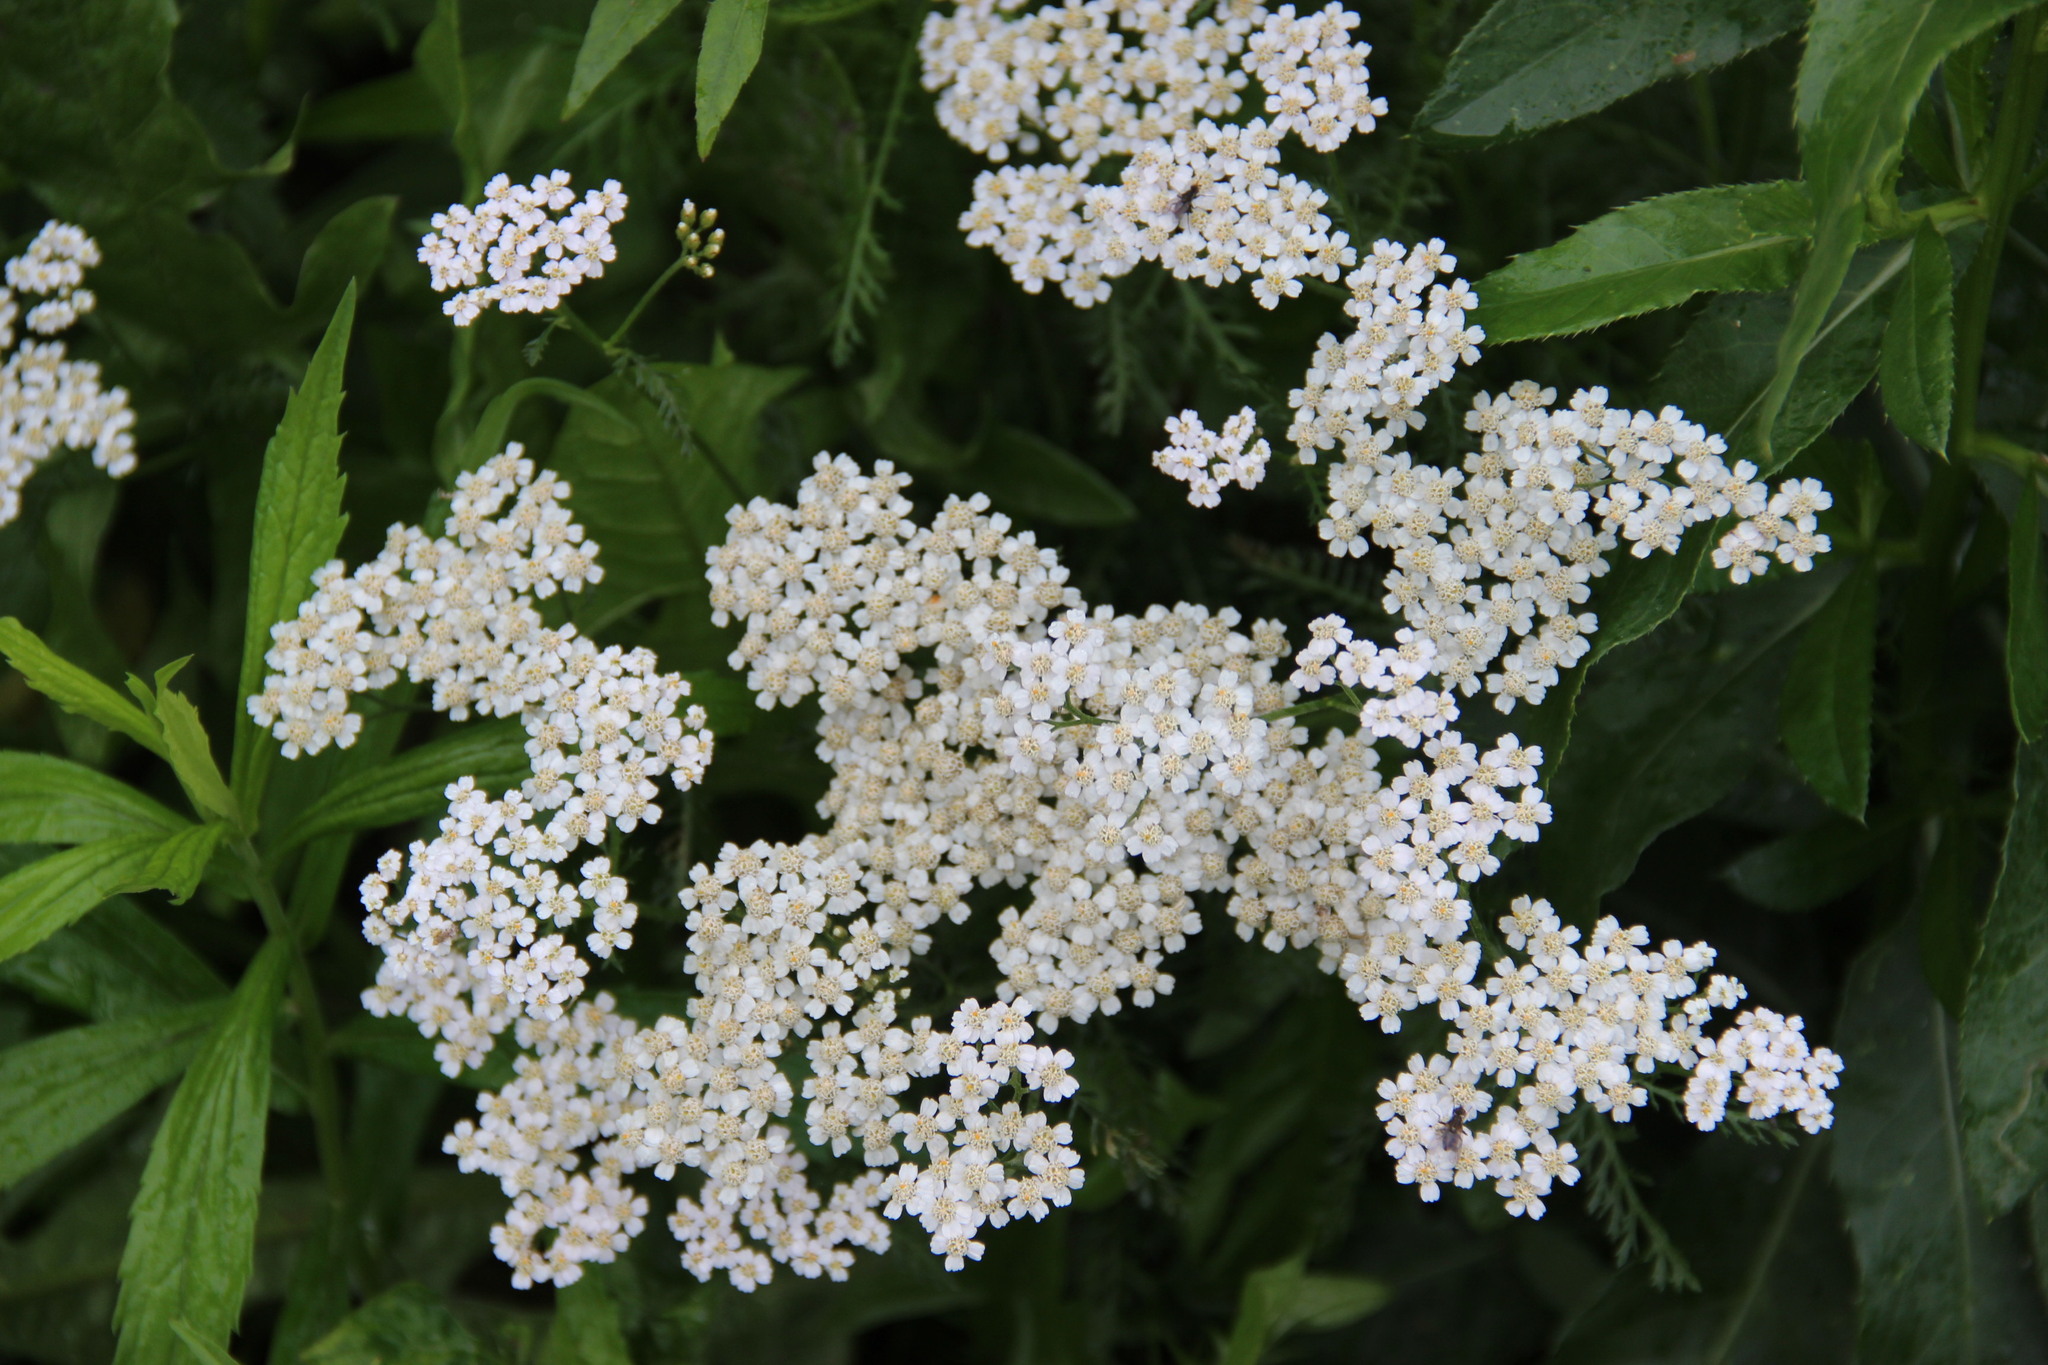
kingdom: Plantae
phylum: Tracheophyta
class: Magnoliopsida
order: Asterales
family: Asteraceae
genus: Achillea
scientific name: Achillea millefolium
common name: Yarrow
